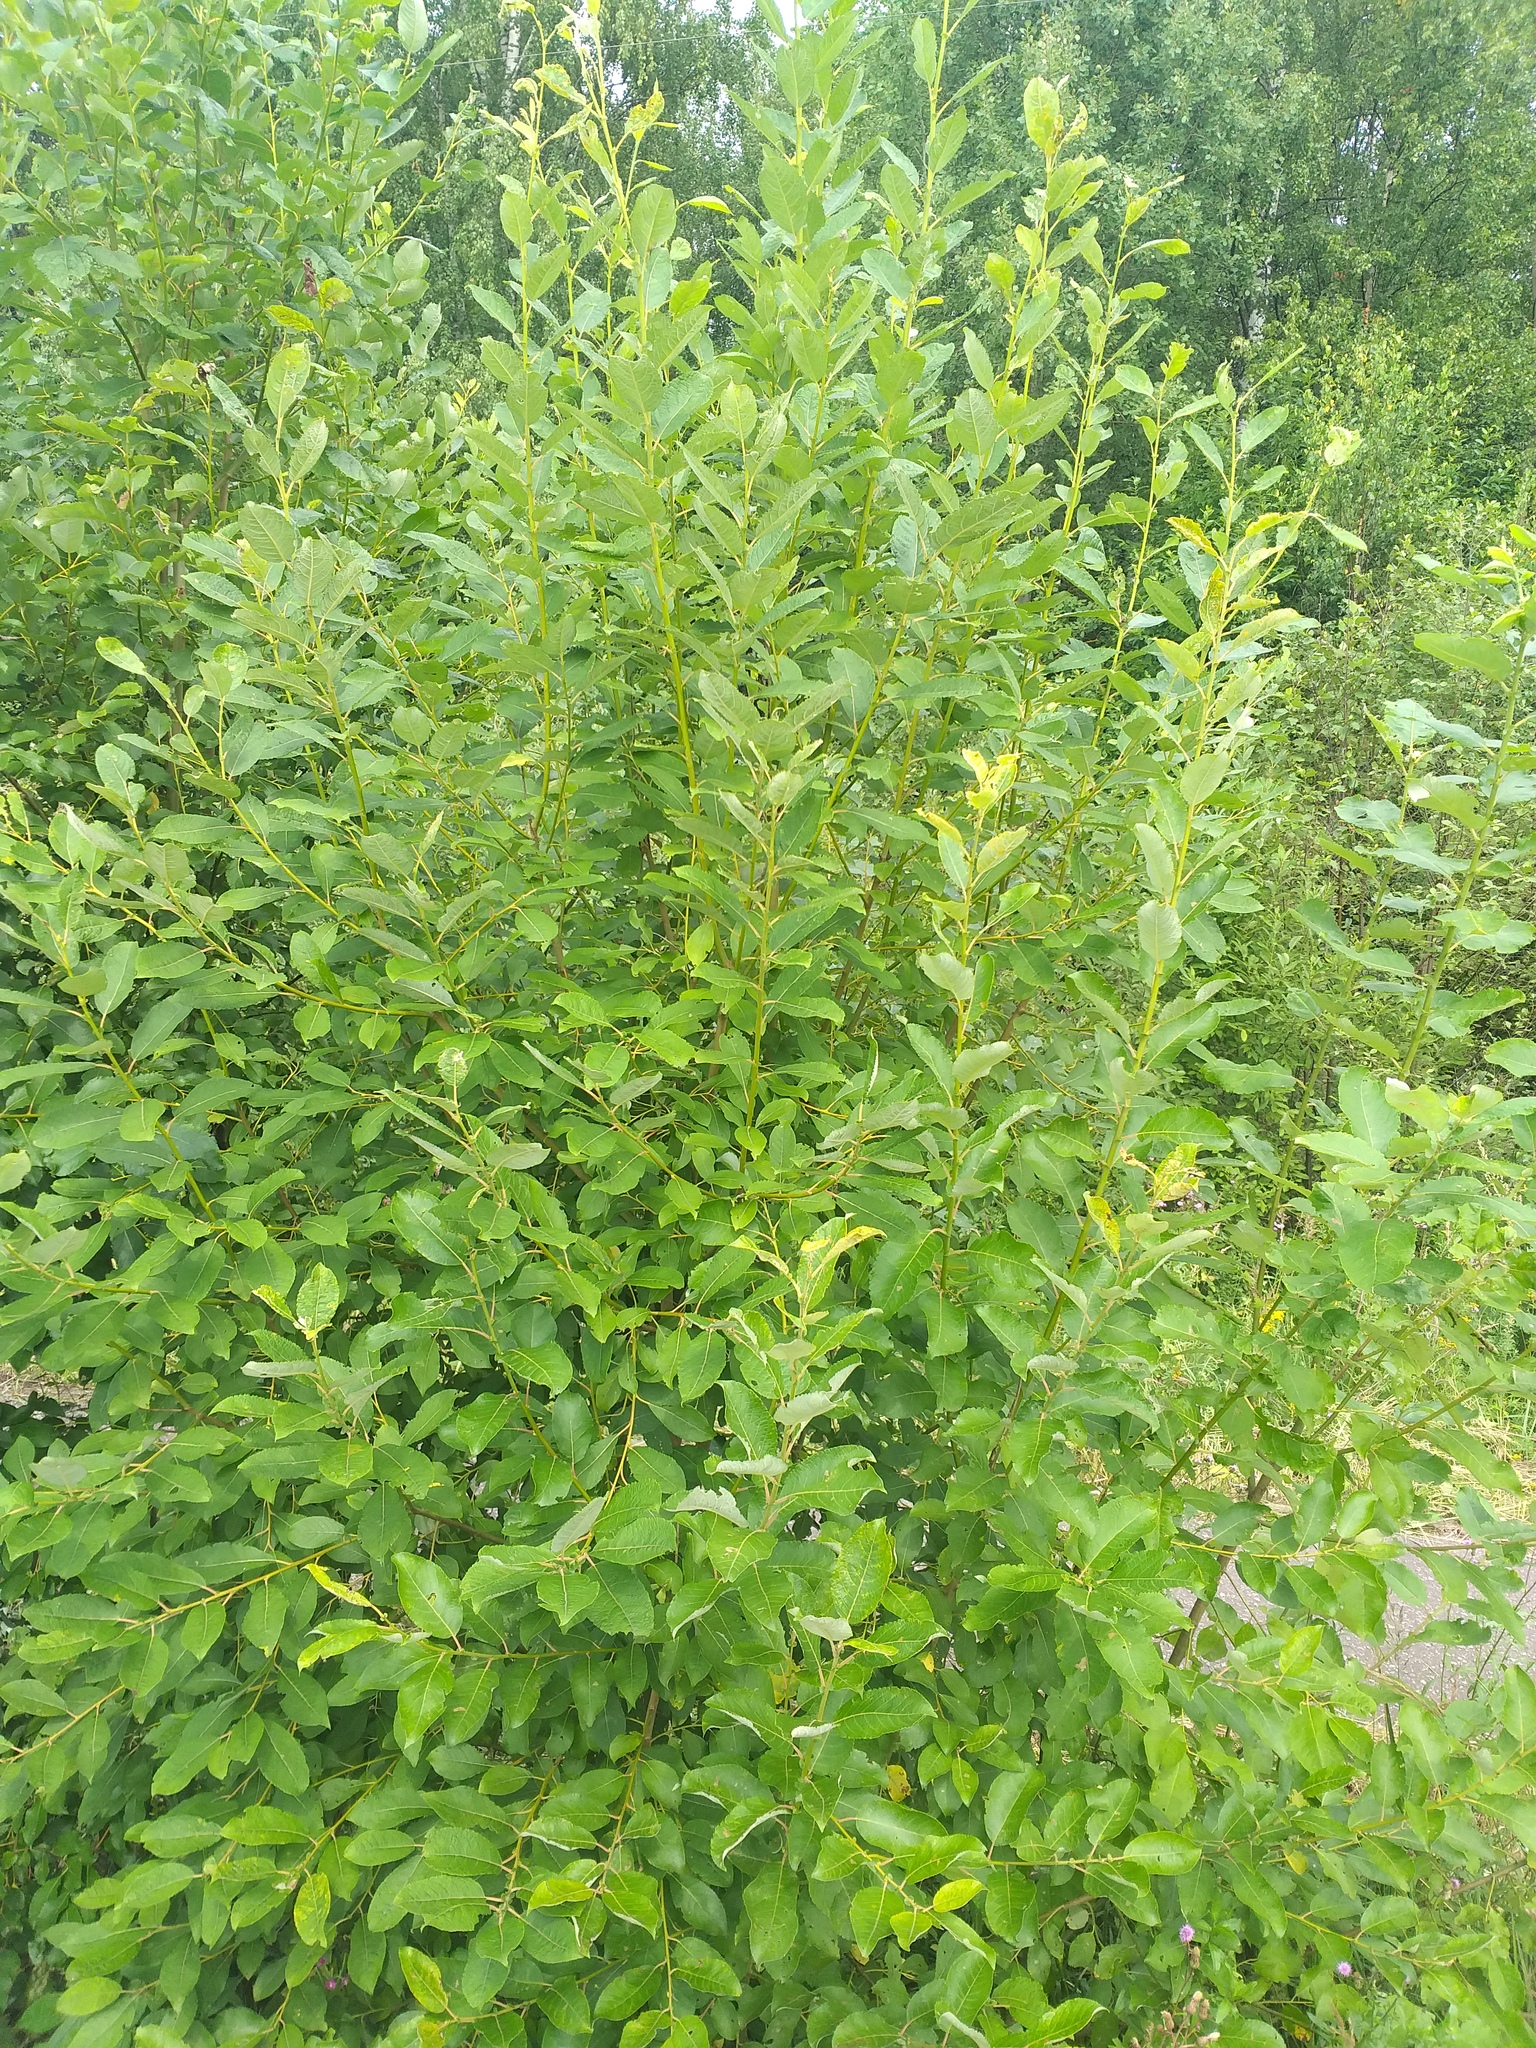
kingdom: Plantae
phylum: Tracheophyta
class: Magnoliopsida
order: Malpighiales
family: Salicaceae
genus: Salix
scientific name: Salix caprea
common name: Goat willow
